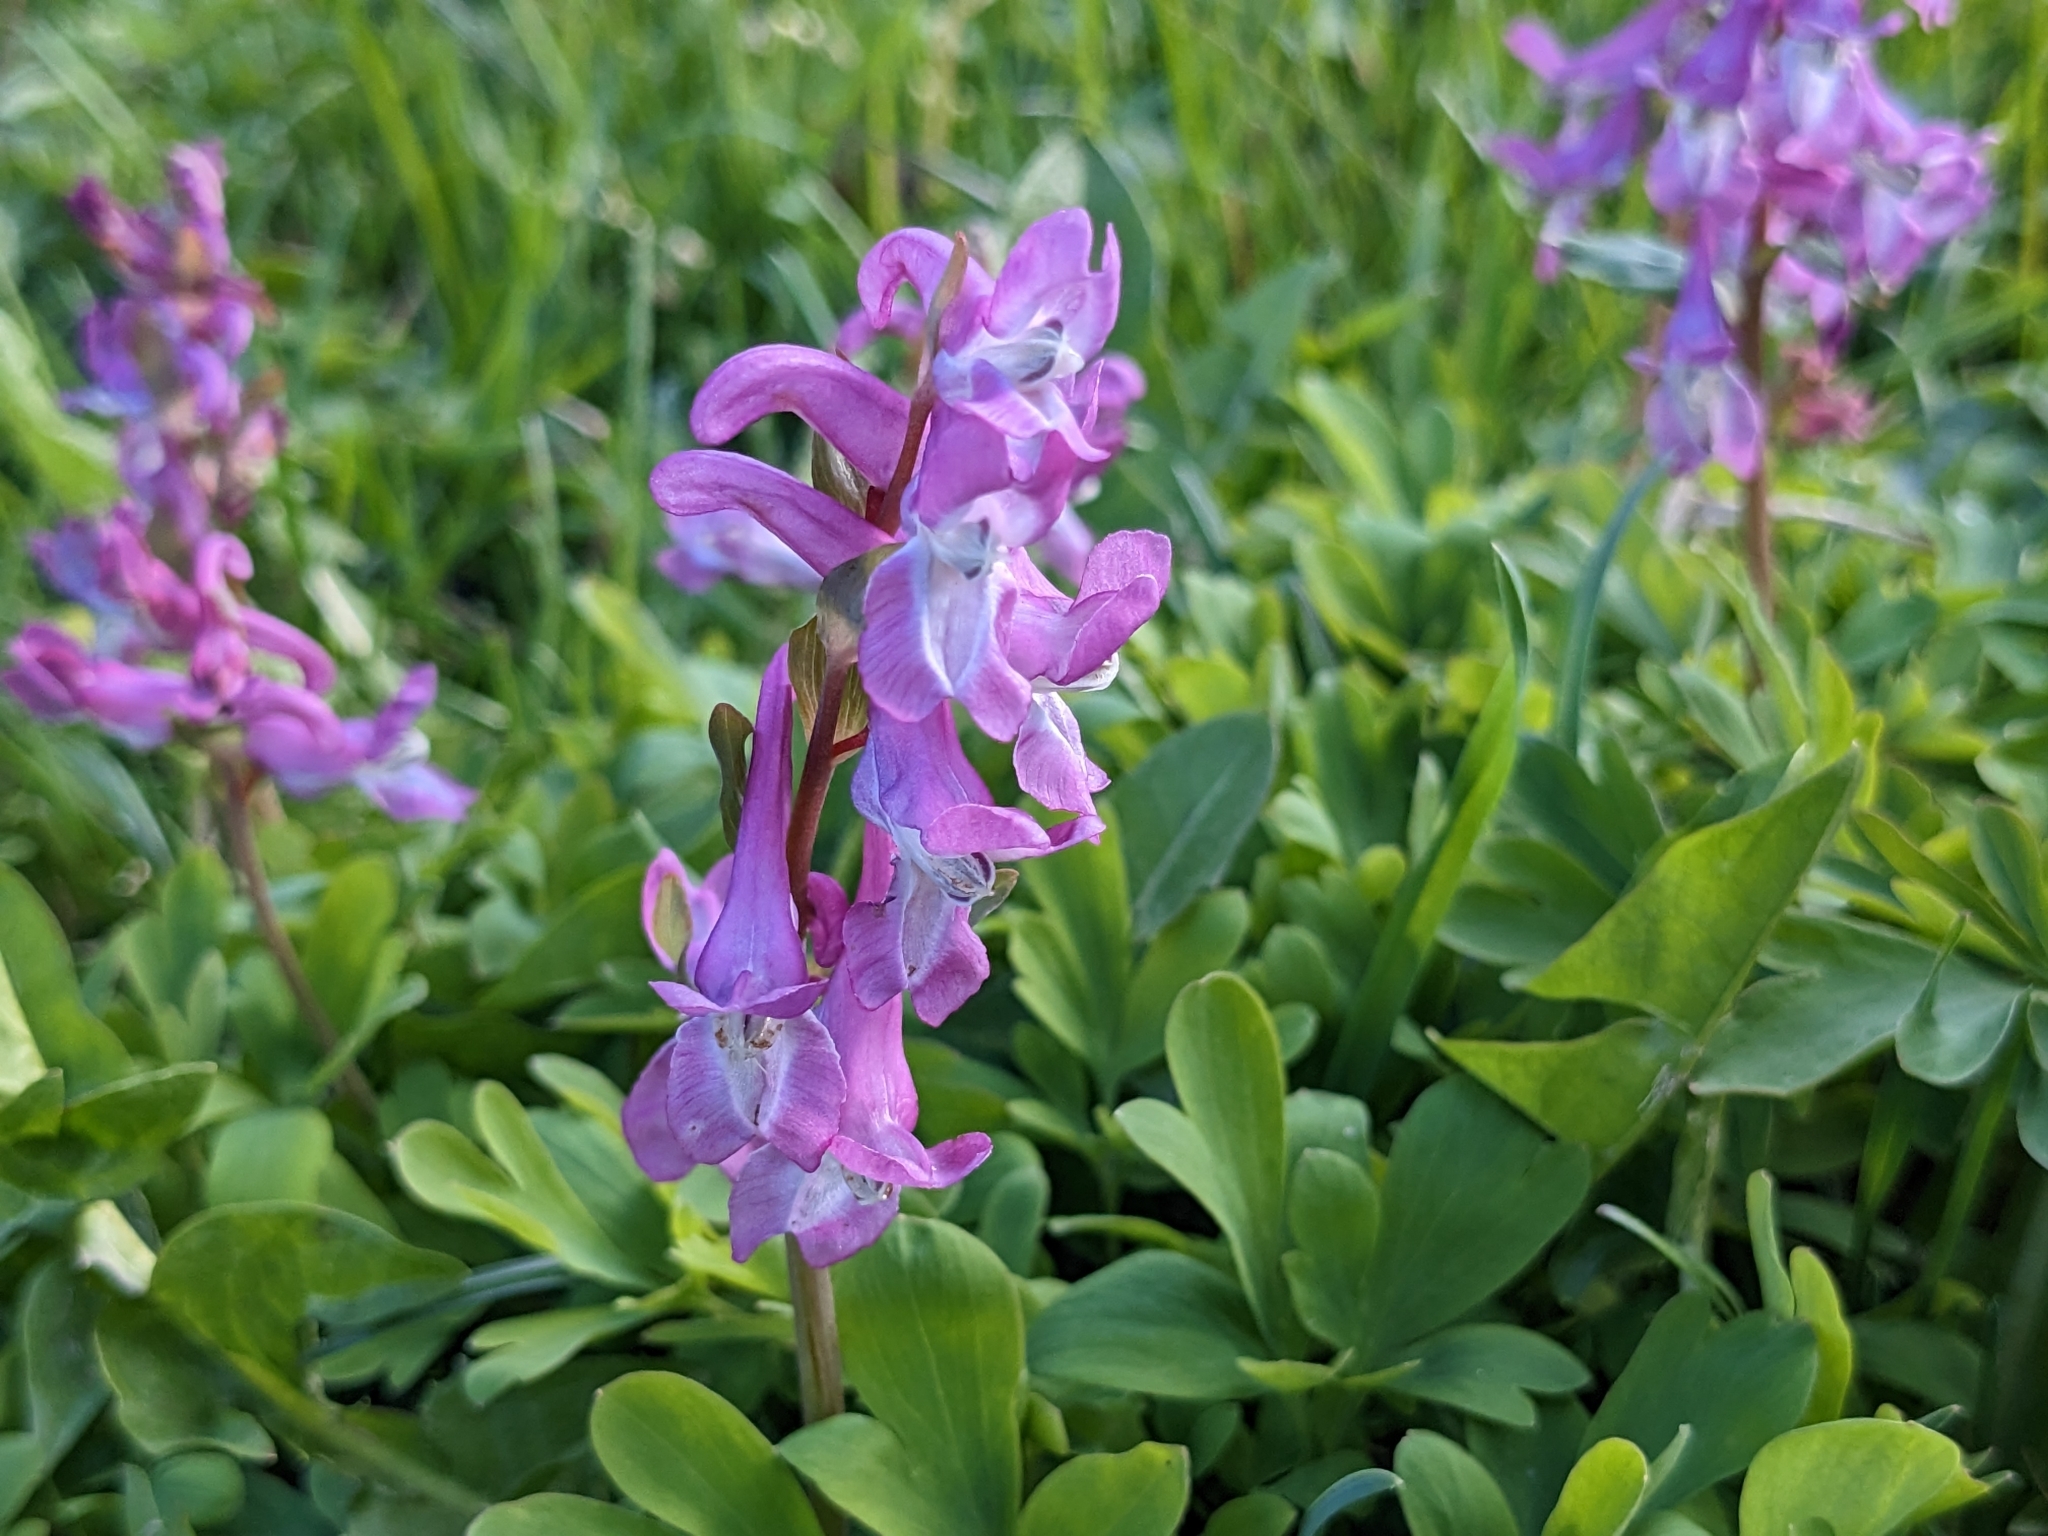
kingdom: Plantae
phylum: Tracheophyta
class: Magnoliopsida
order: Ranunculales
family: Papaveraceae
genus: Corydalis
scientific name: Corydalis cava
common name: Hollowroot
